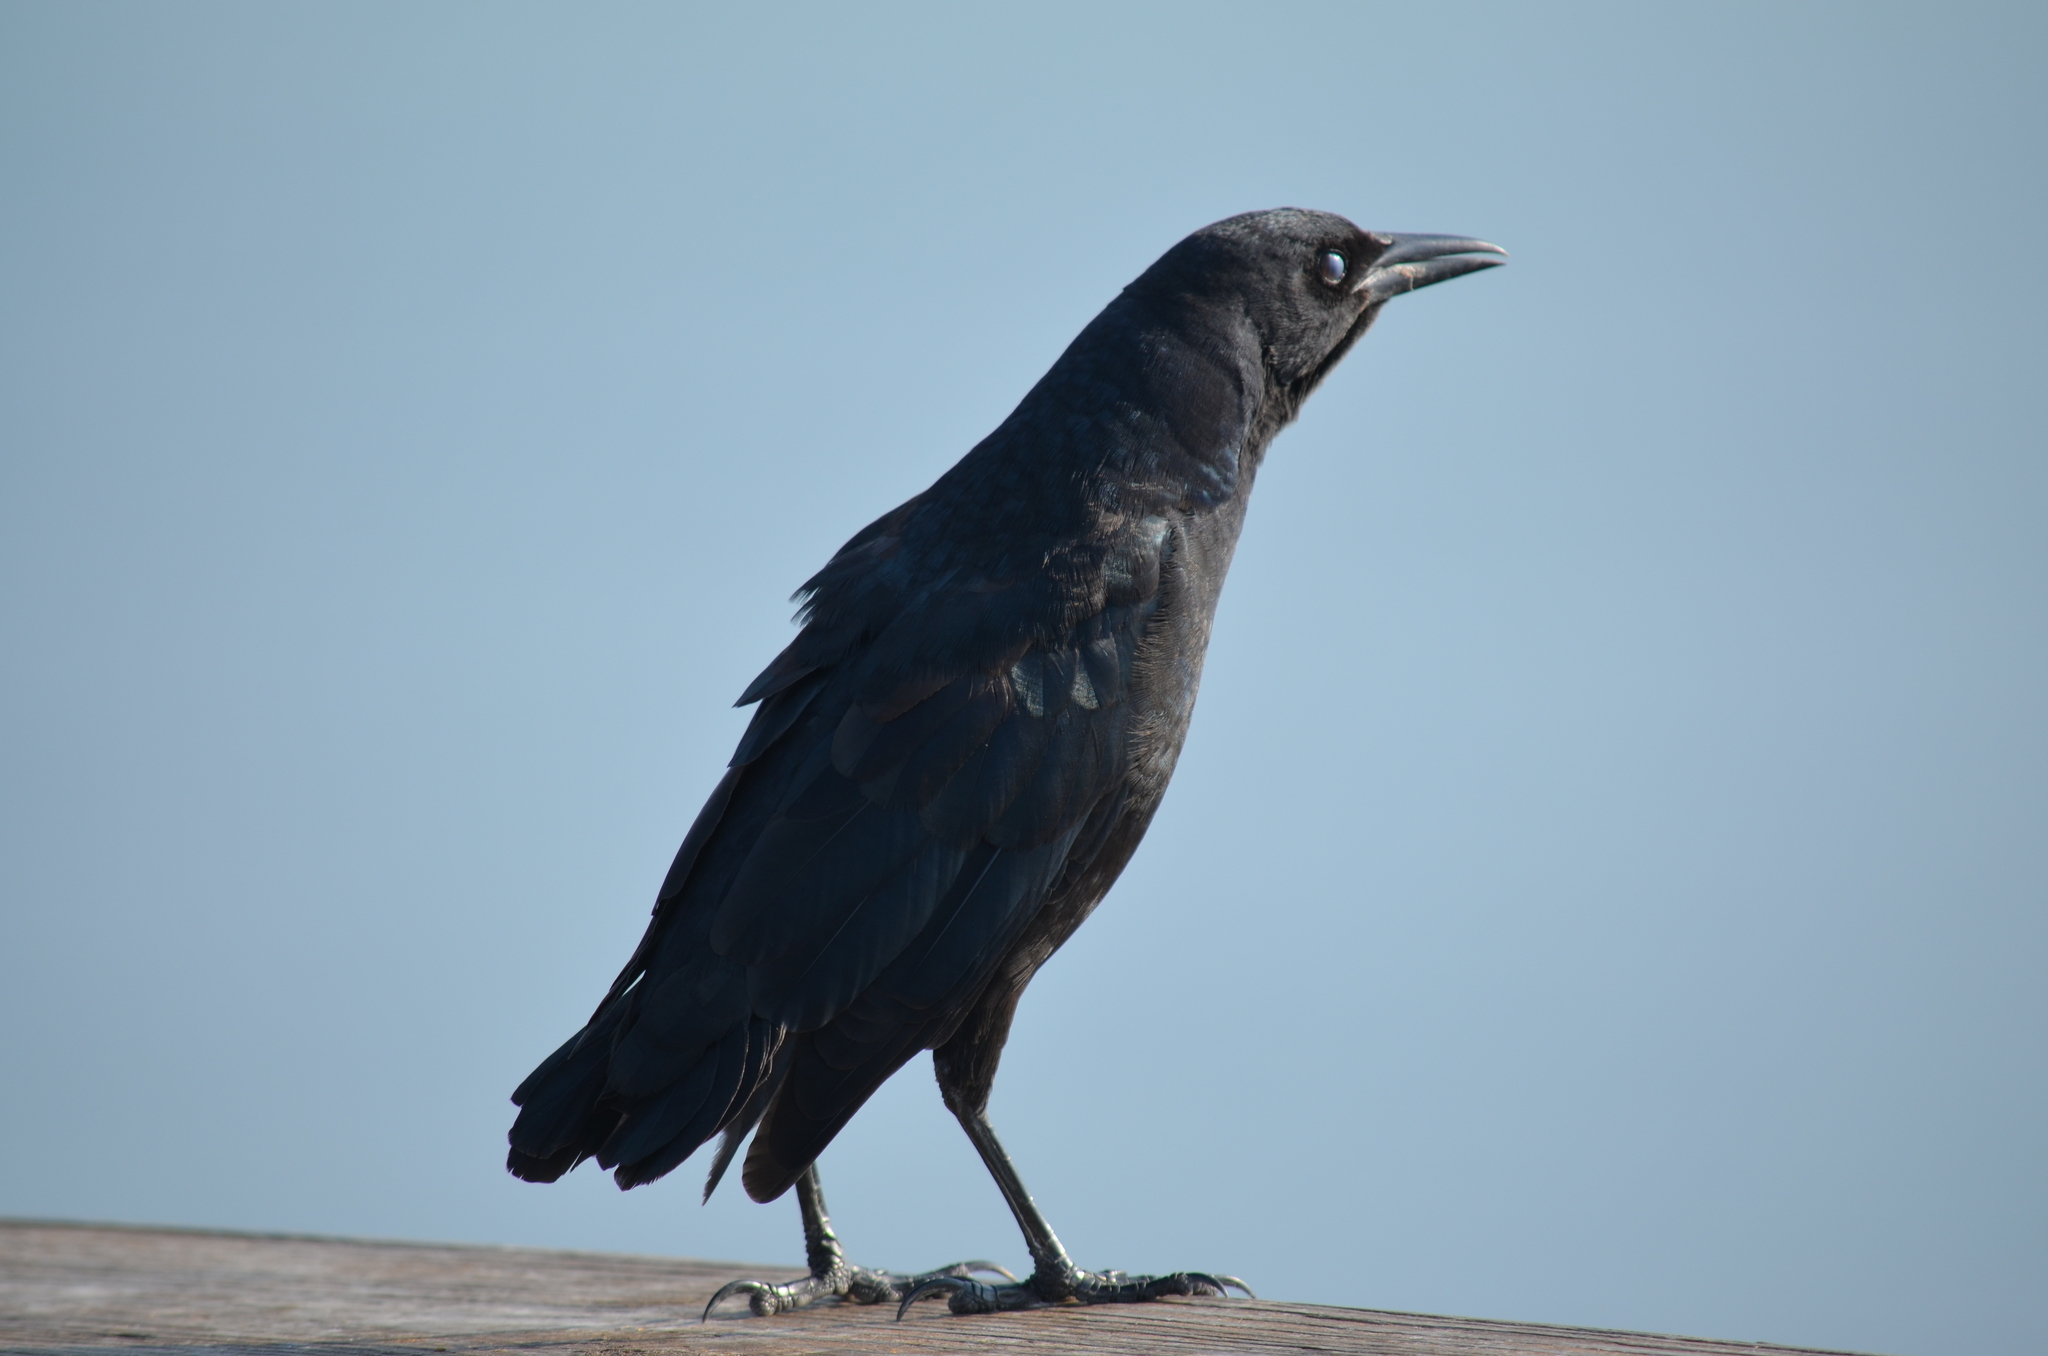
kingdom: Animalia
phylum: Chordata
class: Aves
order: Passeriformes
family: Icteridae
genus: Quiscalus
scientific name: Quiscalus major
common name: Boat-tailed grackle
